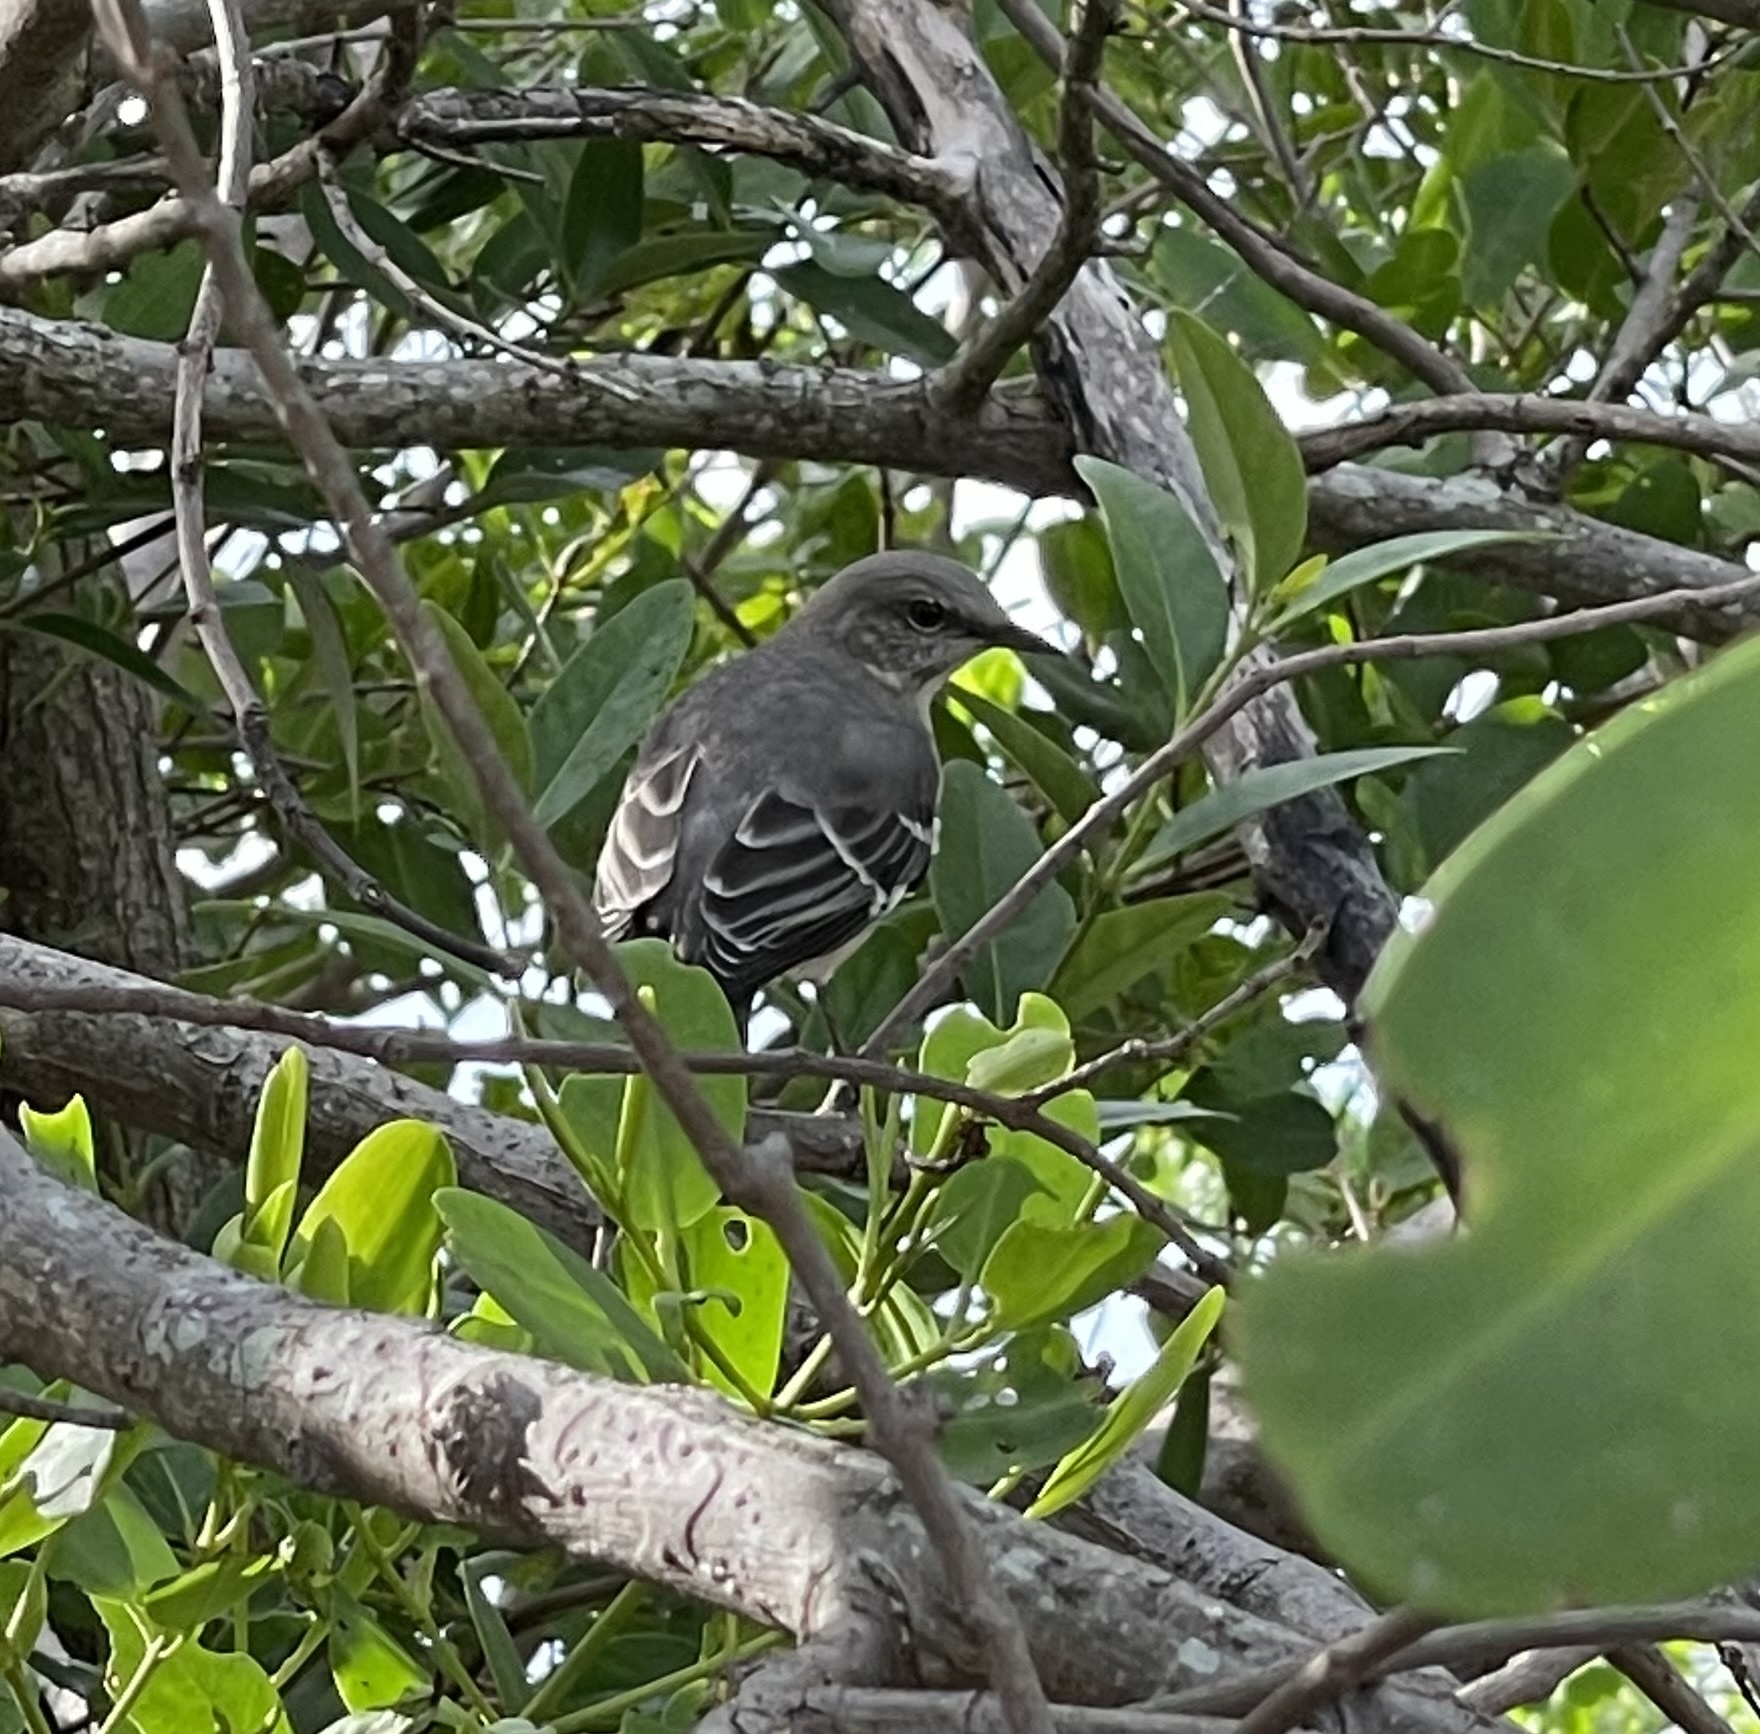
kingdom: Animalia
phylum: Chordata
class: Aves
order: Passeriformes
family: Mimidae
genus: Mimus
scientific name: Mimus polyglottos
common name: Northern mockingbird
